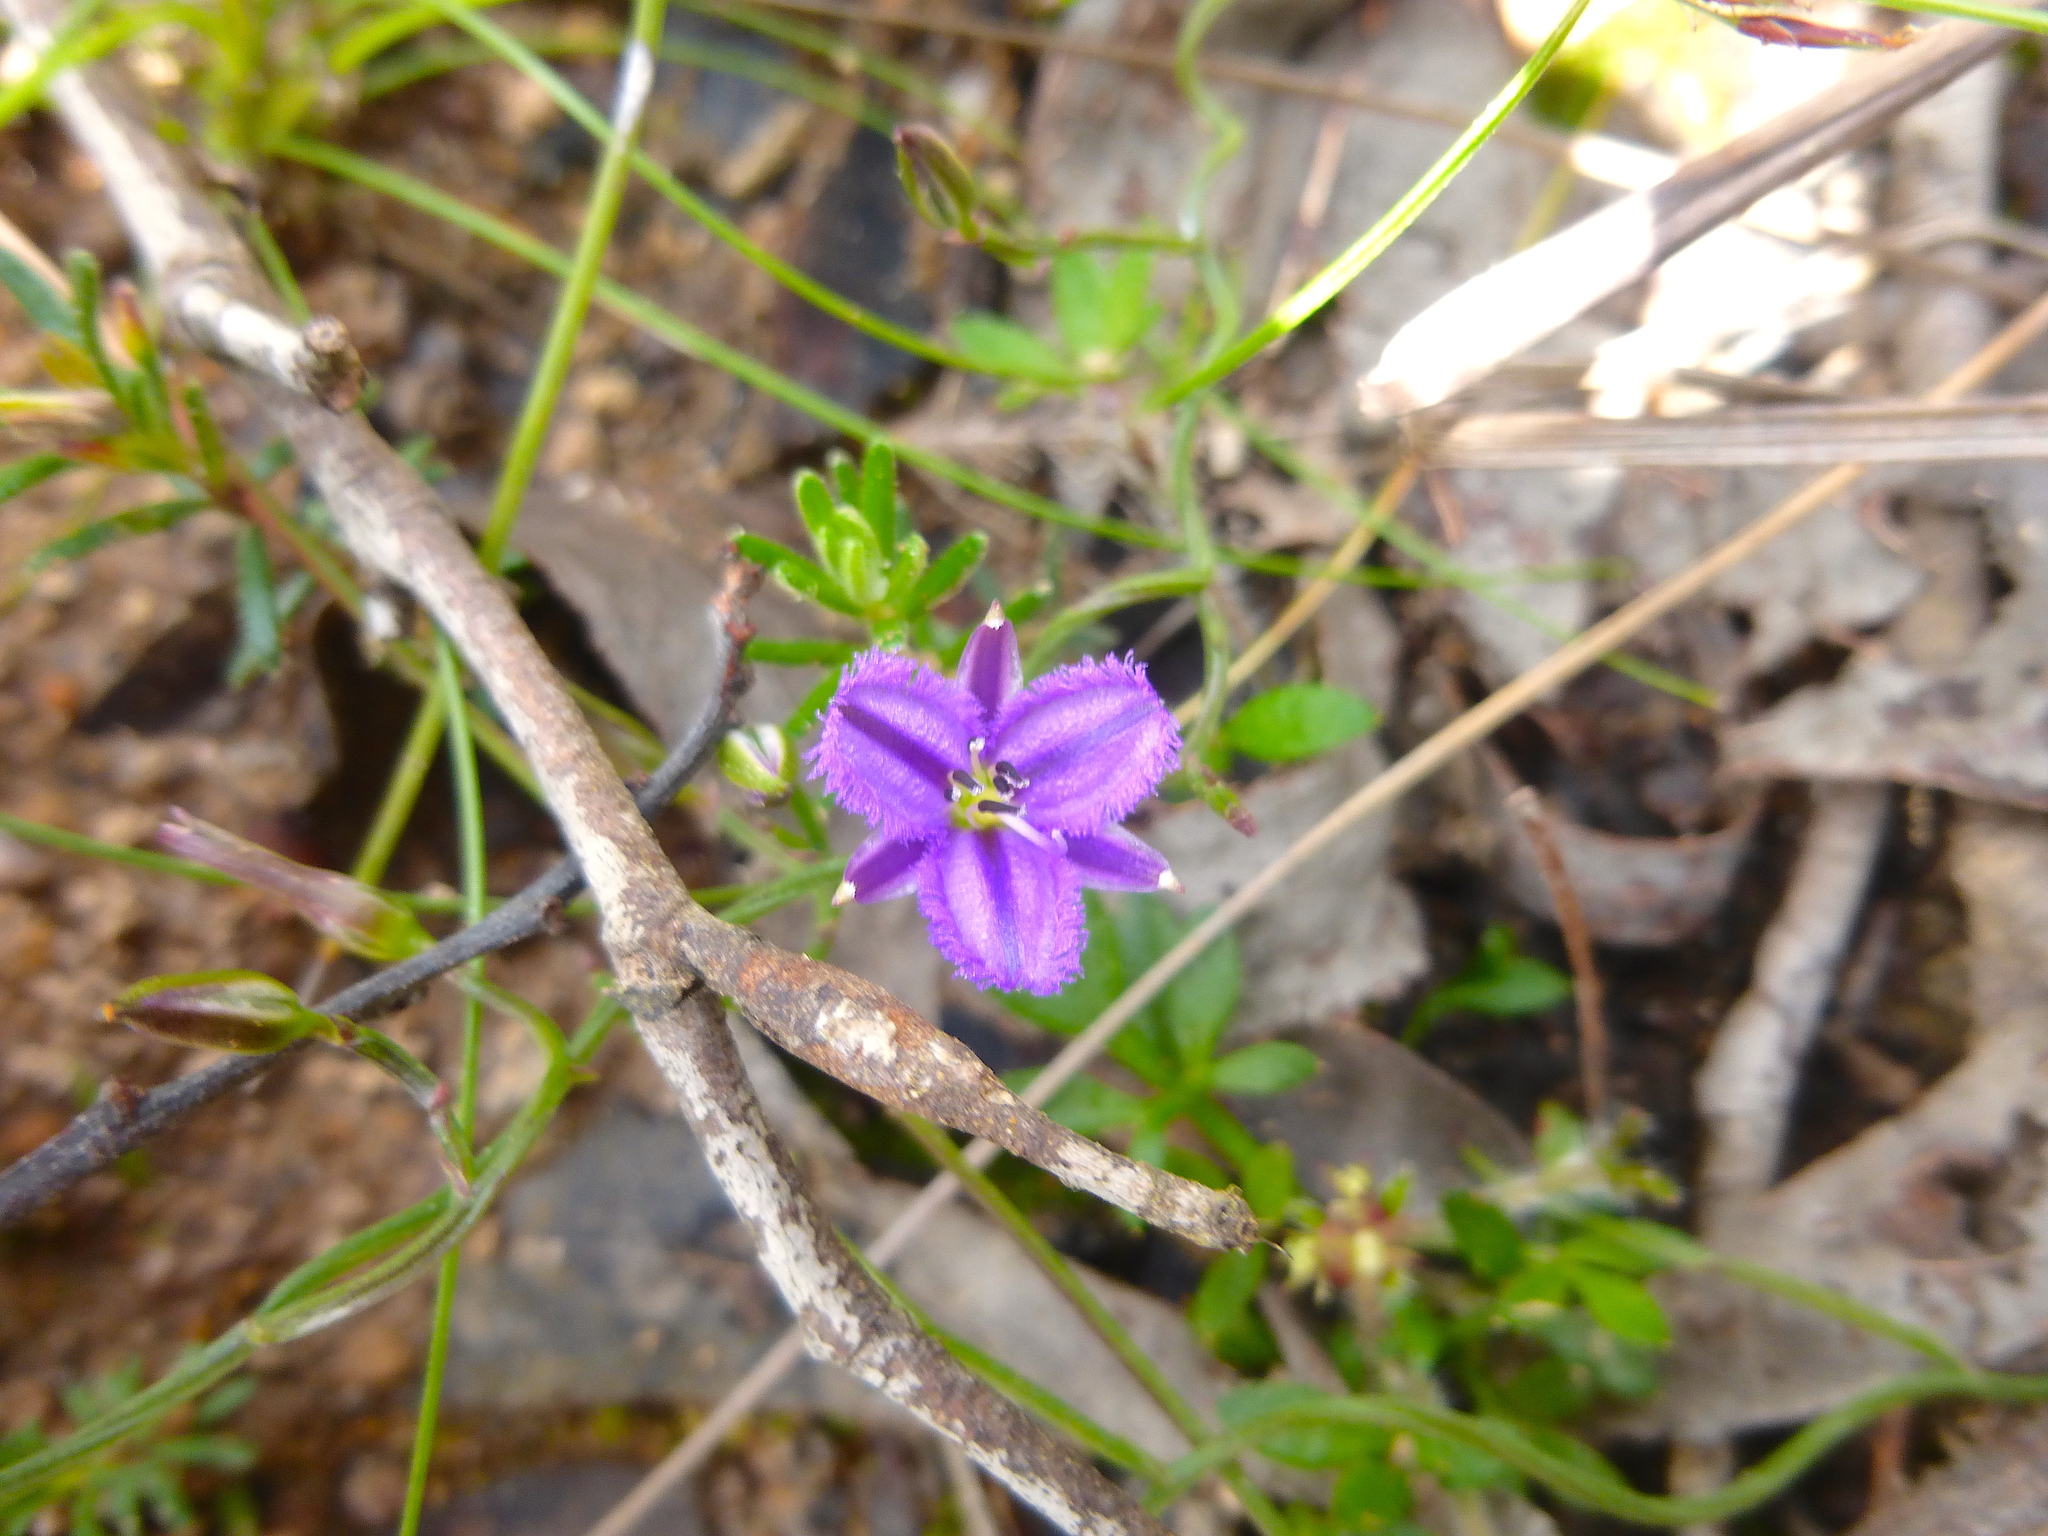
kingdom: Plantae
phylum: Tracheophyta
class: Liliopsida
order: Asparagales
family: Asparagaceae
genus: Thysanotus
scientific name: Thysanotus patersonii
